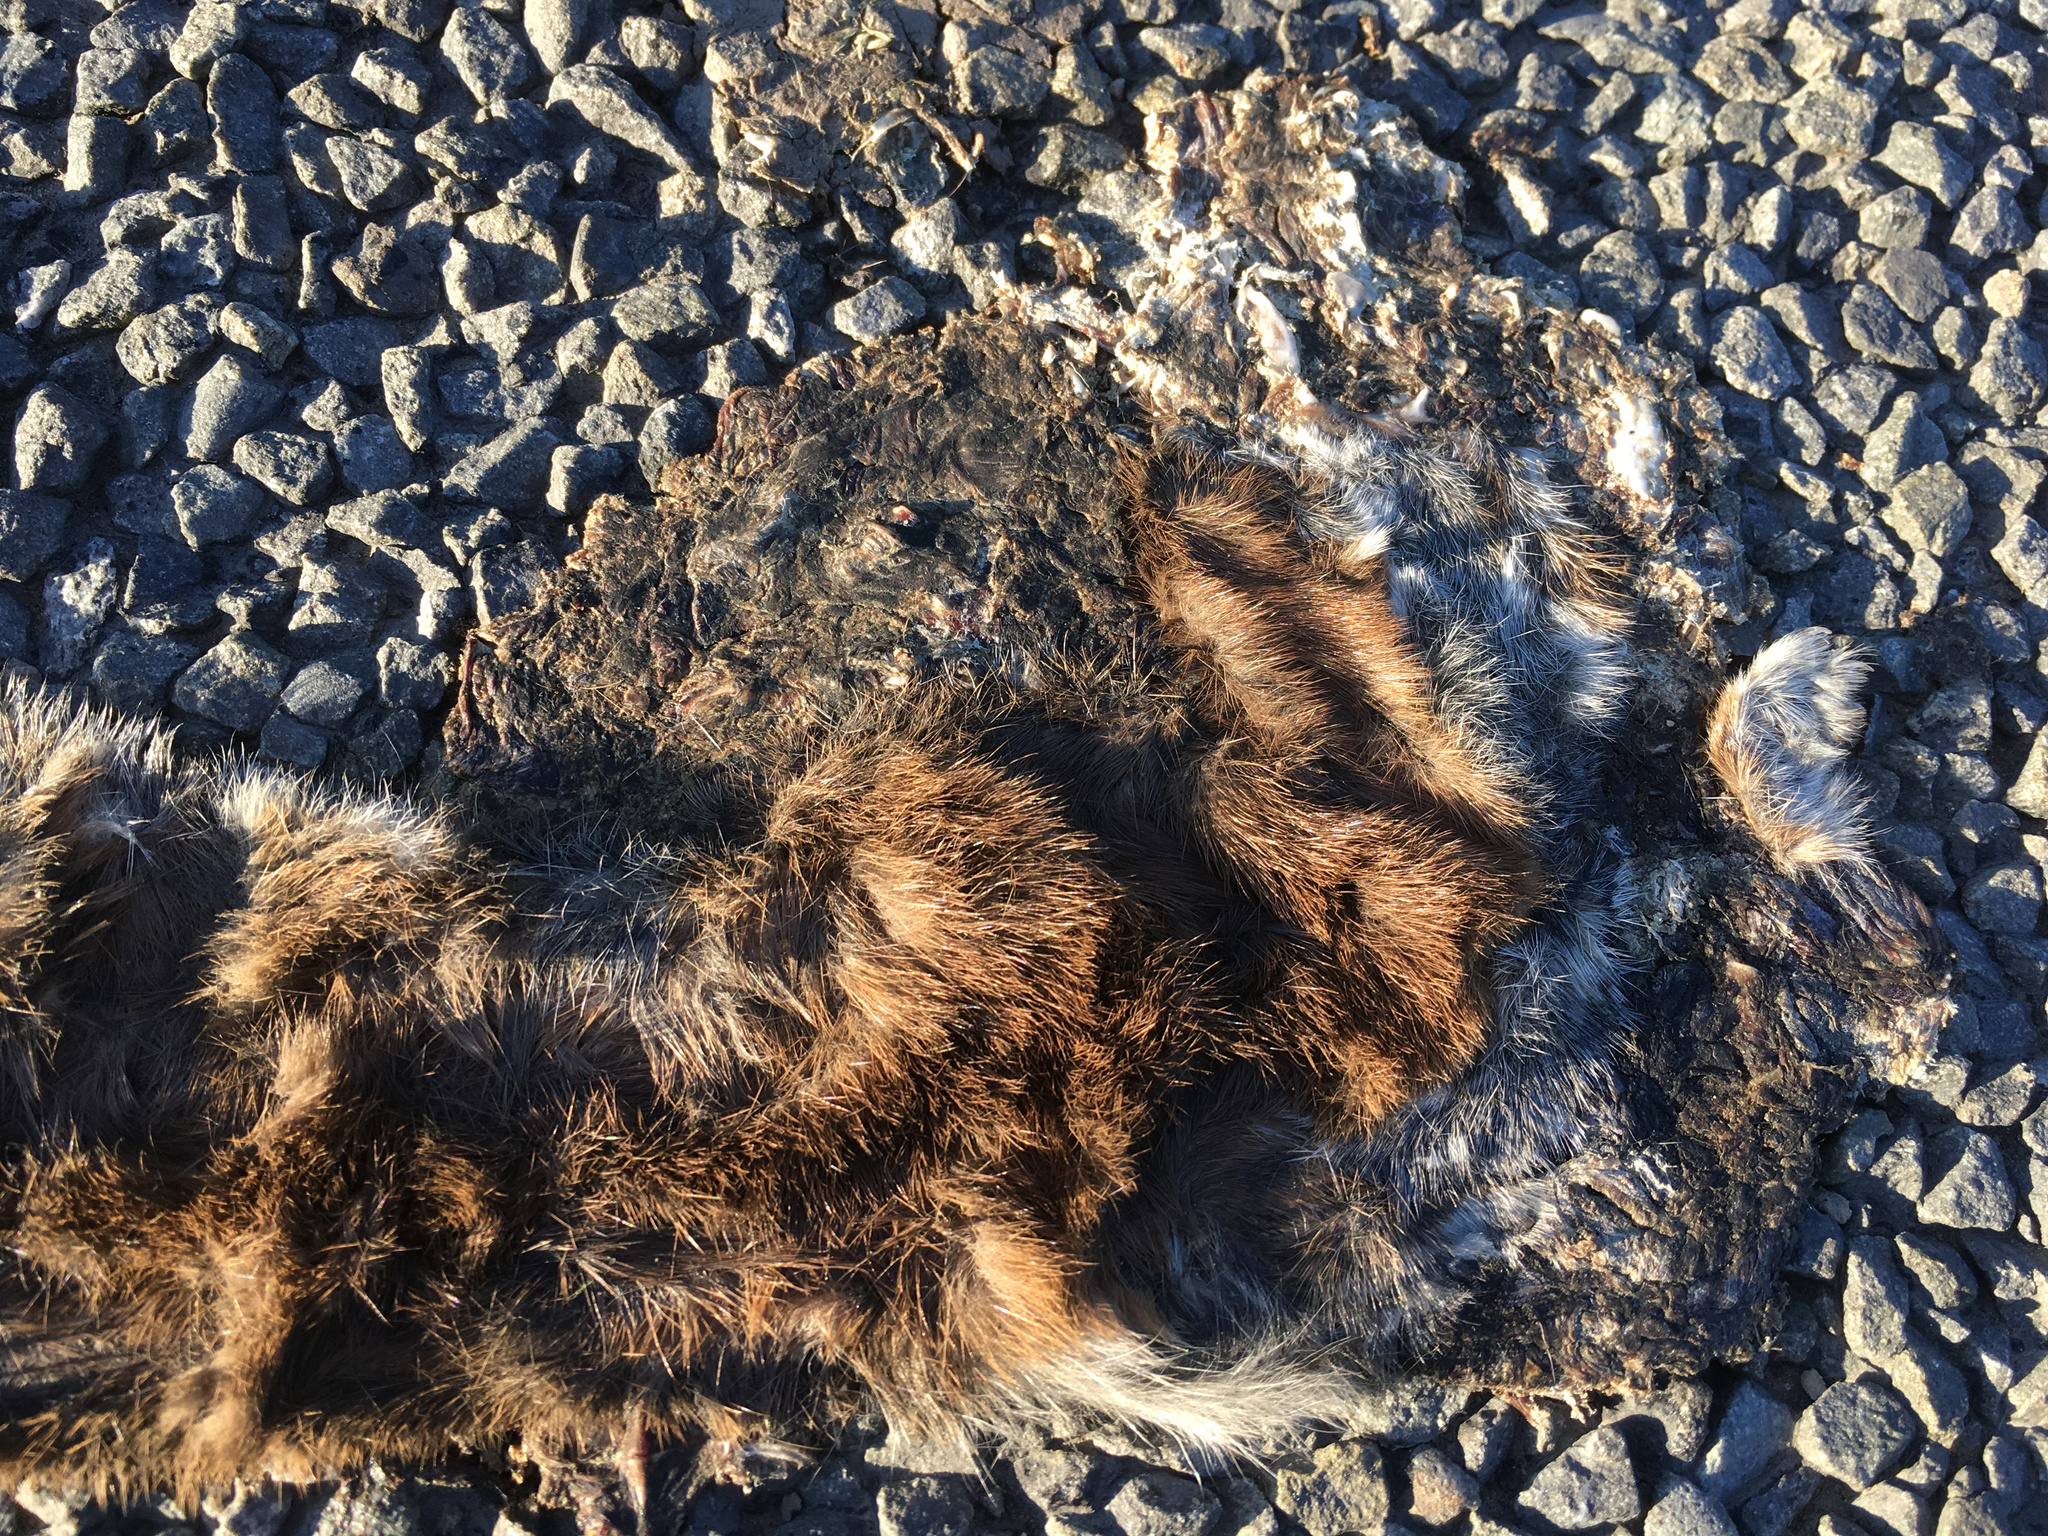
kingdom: Animalia
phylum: Chordata
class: Mammalia
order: Carnivora
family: Mustelidae
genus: Mustela
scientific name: Mustela
